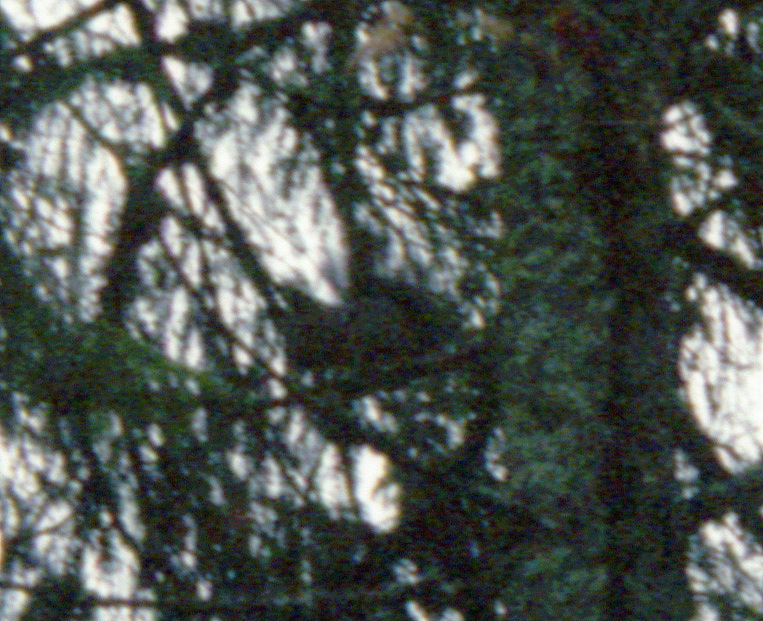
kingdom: Animalia
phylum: Chordata
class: Mammalia
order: Rodentia
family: Sciuridae
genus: Sciurus
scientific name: Sciurus vulgaris
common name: Eurasian red squirrel
